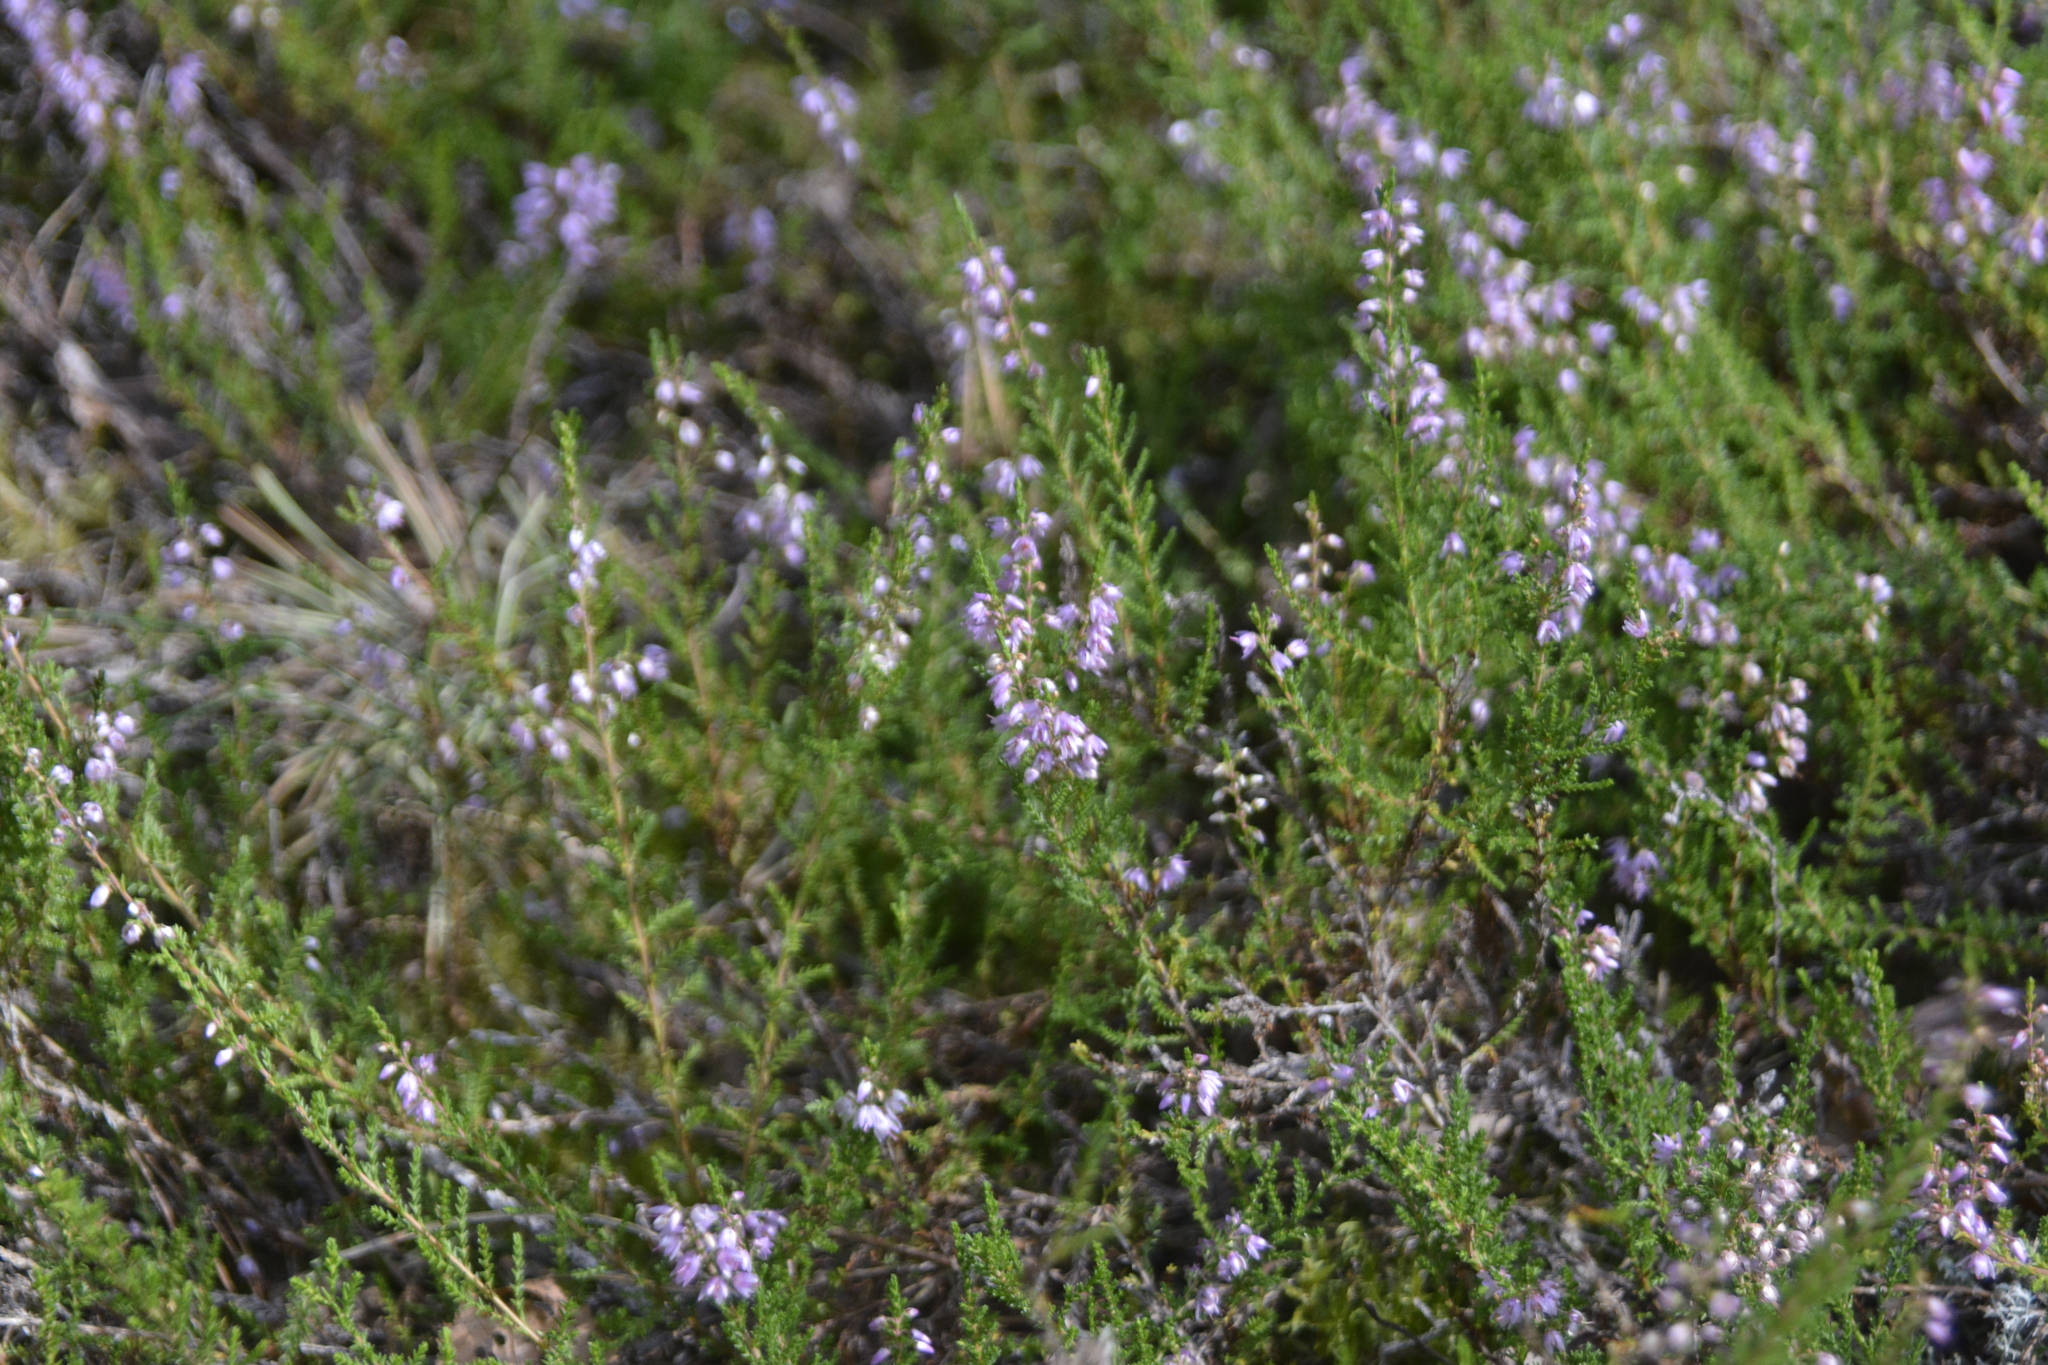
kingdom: Plantae
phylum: Tracheophyta
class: Magnoliopsida
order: Ericales
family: Ericaceae
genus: Calluna
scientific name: Calluna vulgaris
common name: Heather
